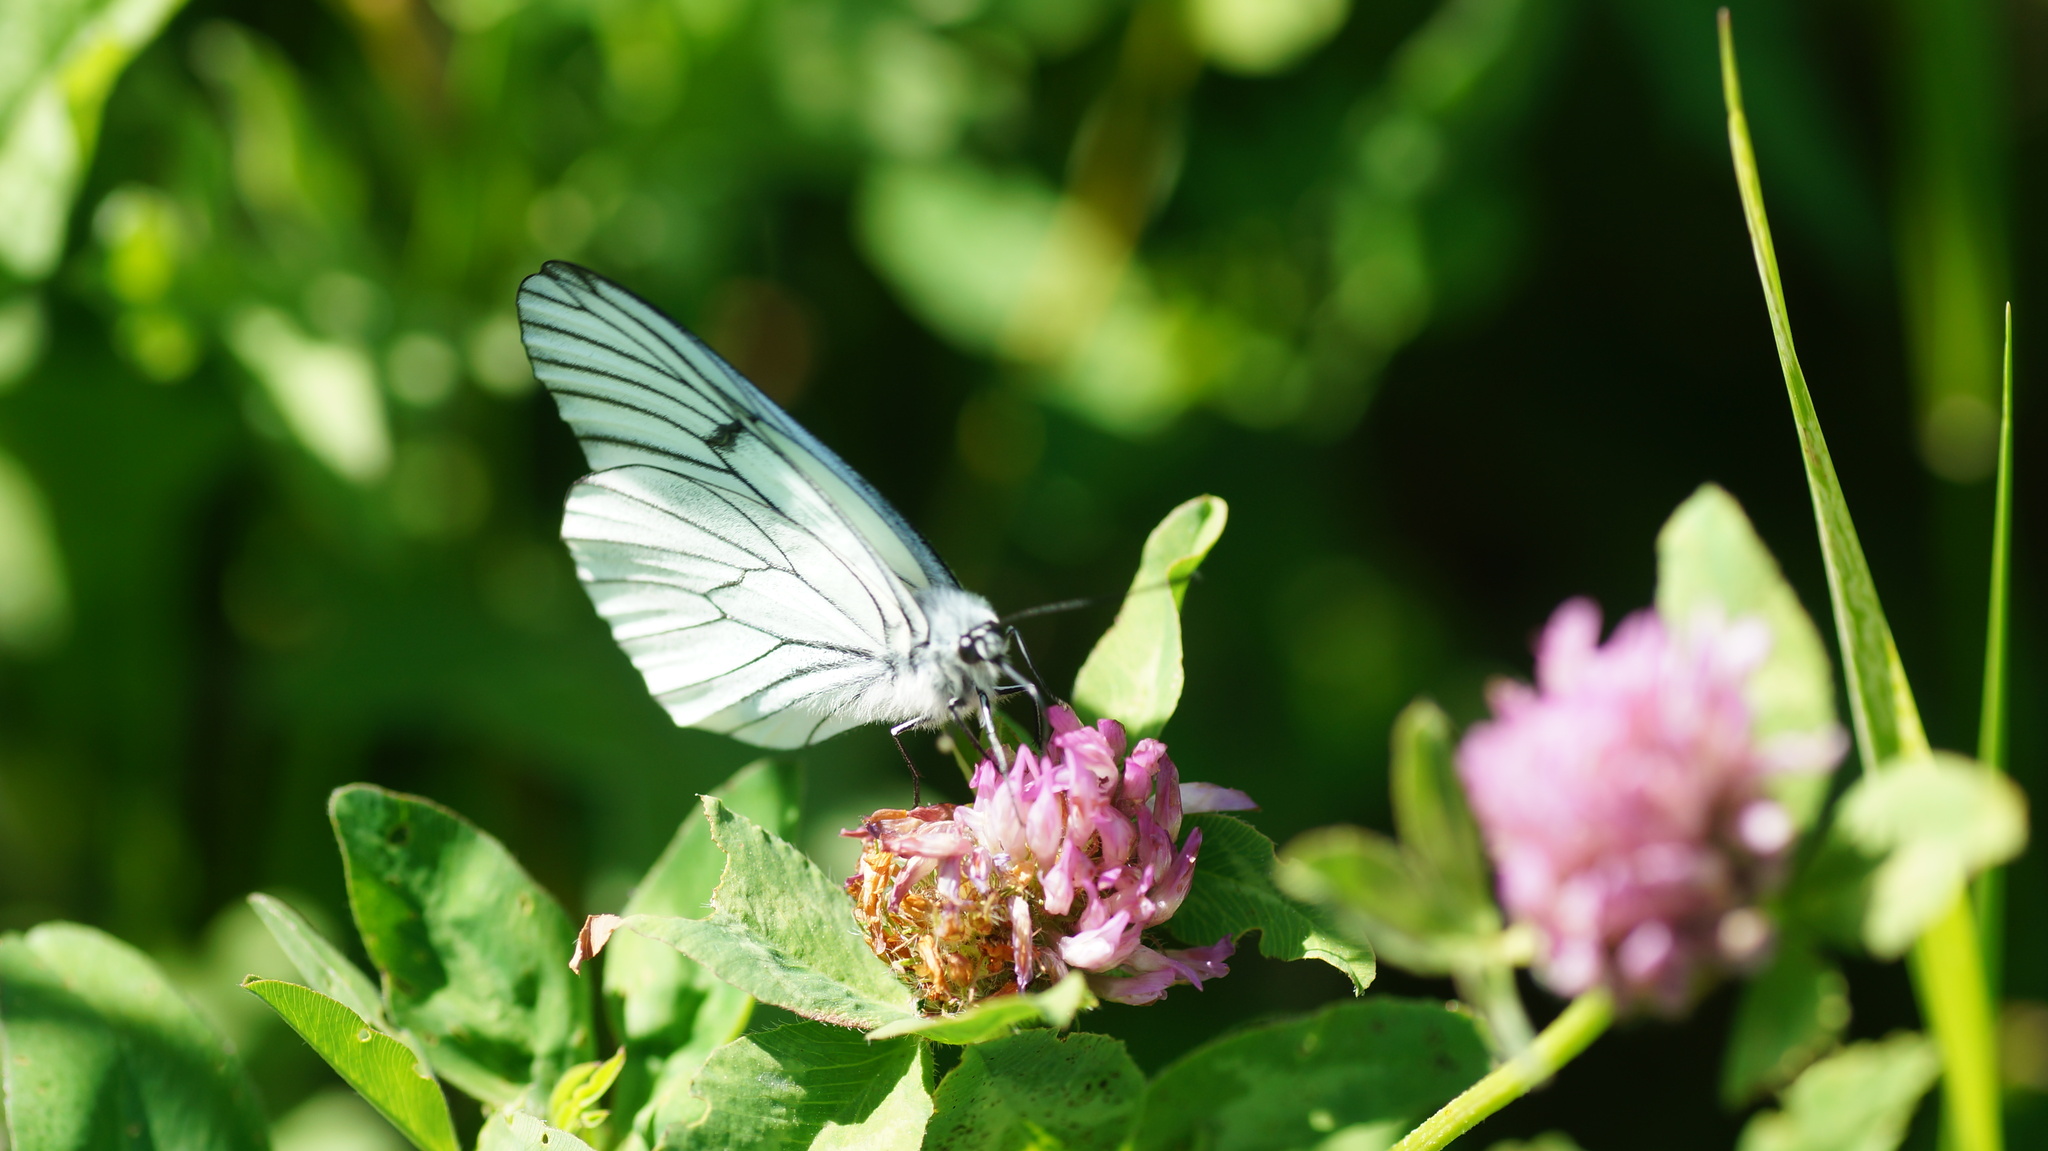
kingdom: Animalia
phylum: Arthropoda
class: Insecta
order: Lepidoptera
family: Pieridae
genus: Aporia
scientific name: Aporia crataegi
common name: Black-veined white
